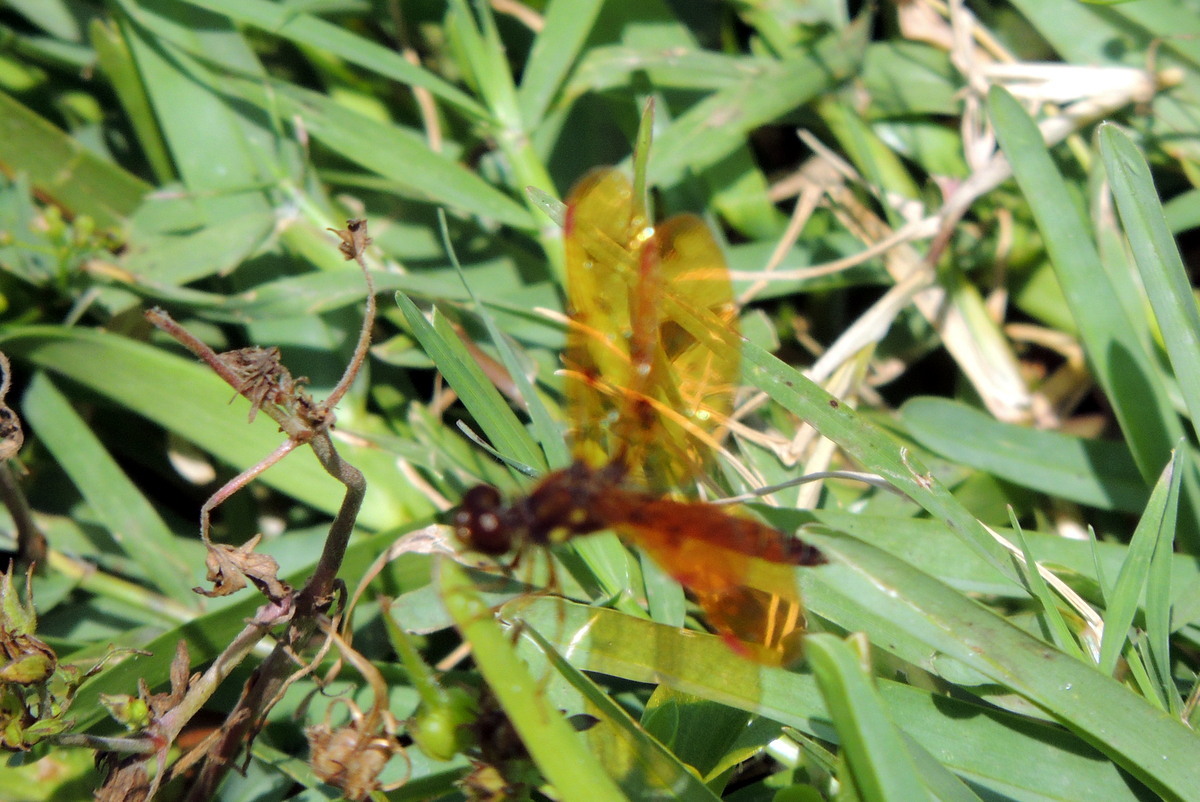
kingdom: Animalia
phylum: Arthropoda
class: Insecta
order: Odonata
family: Libellulidae
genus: Perithemis
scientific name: Perithemis tenera
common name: Eastern amberwing
